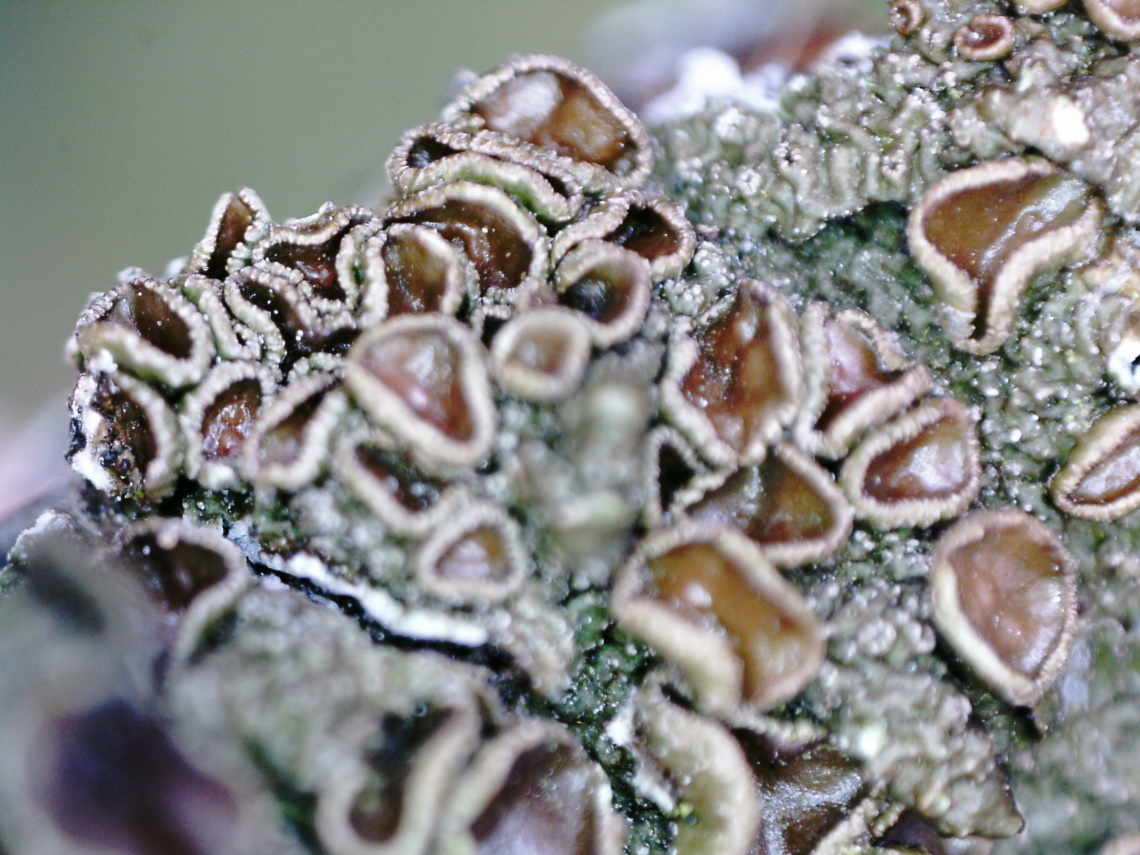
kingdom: Fungi
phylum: Ascomycota
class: Lecanoromycetes
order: Lecanorales
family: Parmeliaceae
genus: Melanohalea
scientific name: Melanohalea exasperata
